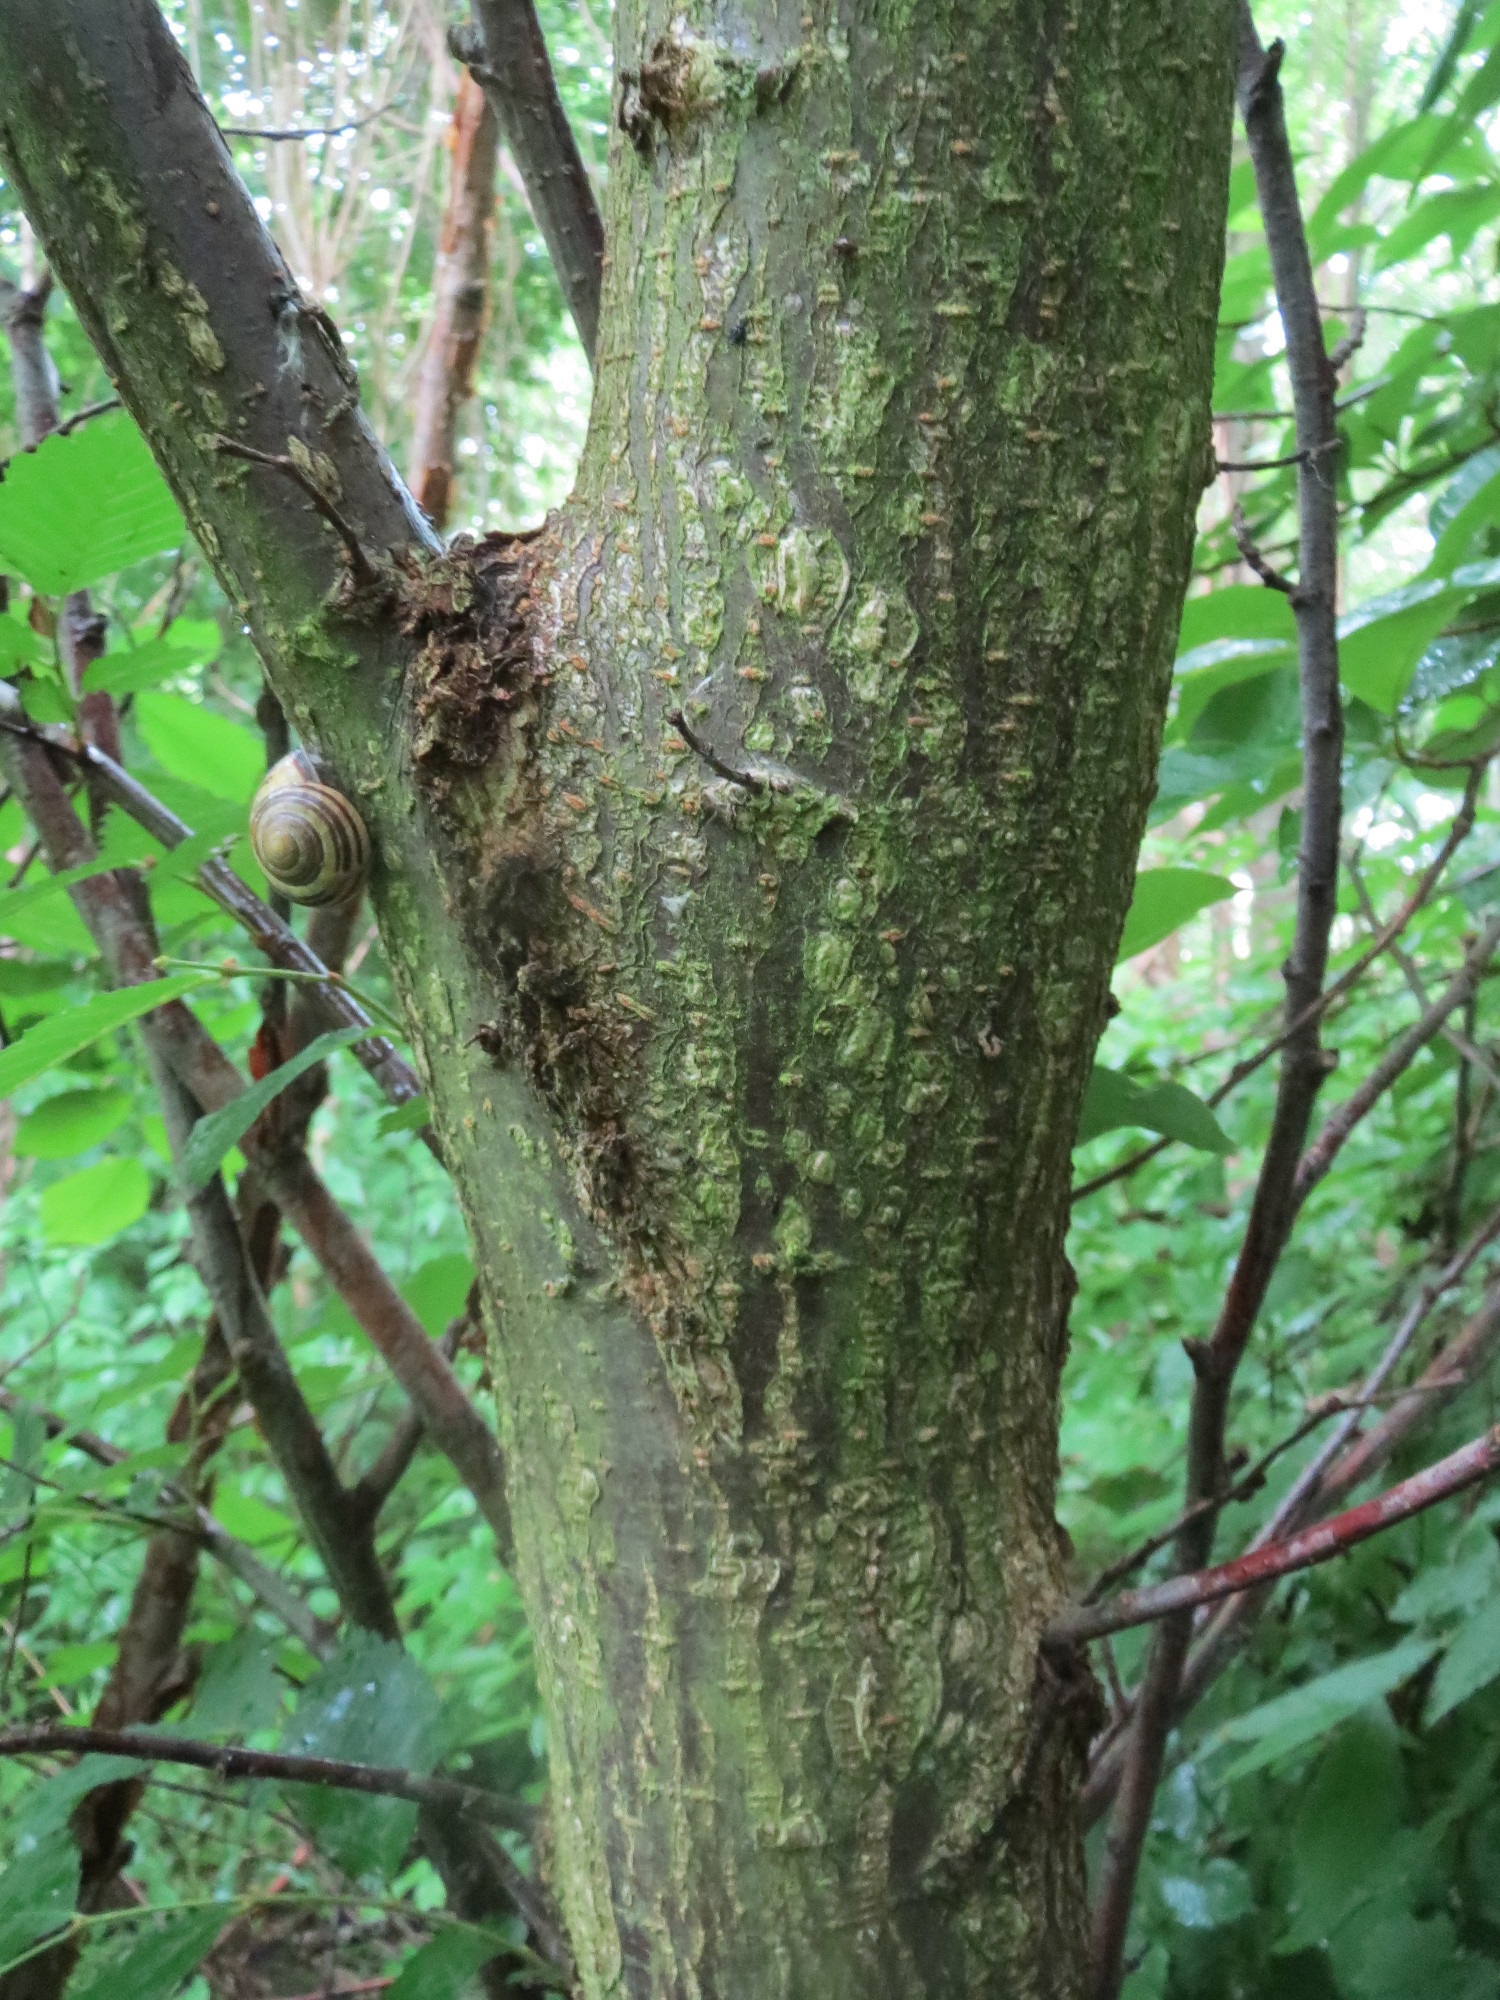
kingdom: Plantae
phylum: Tracheophyta
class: Magnoliopsida
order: Rosales
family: Ulmaceae
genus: Ulmus
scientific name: Ulmus laevis
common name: European white-elm
